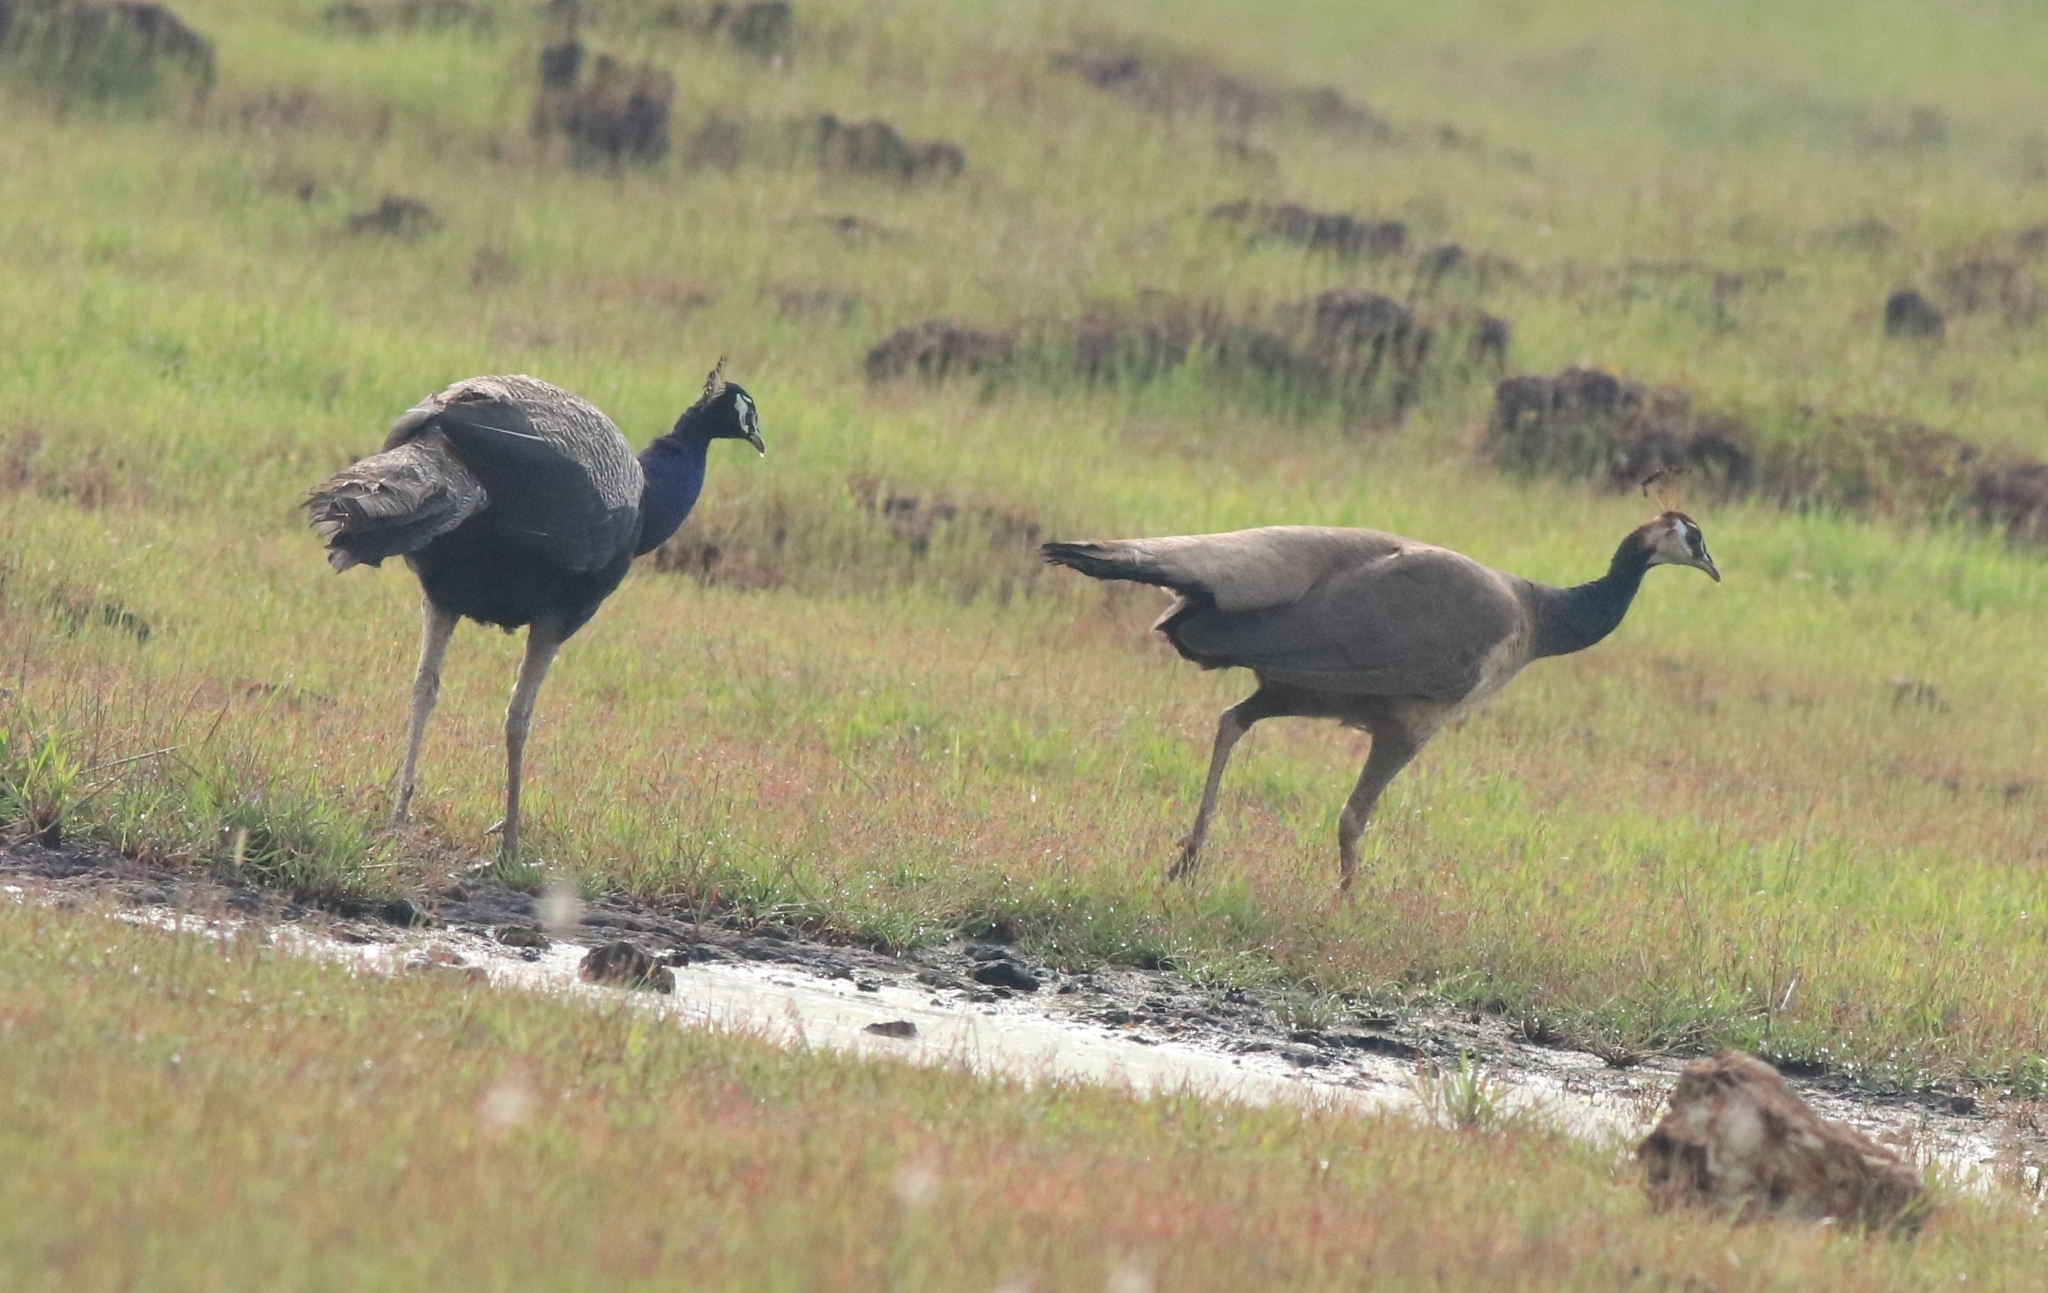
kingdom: Animalia
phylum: Chordata
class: Aves
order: Galliformes
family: Phasianidae
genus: Pavo
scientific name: Pavo cristatus
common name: Indian peafowl
